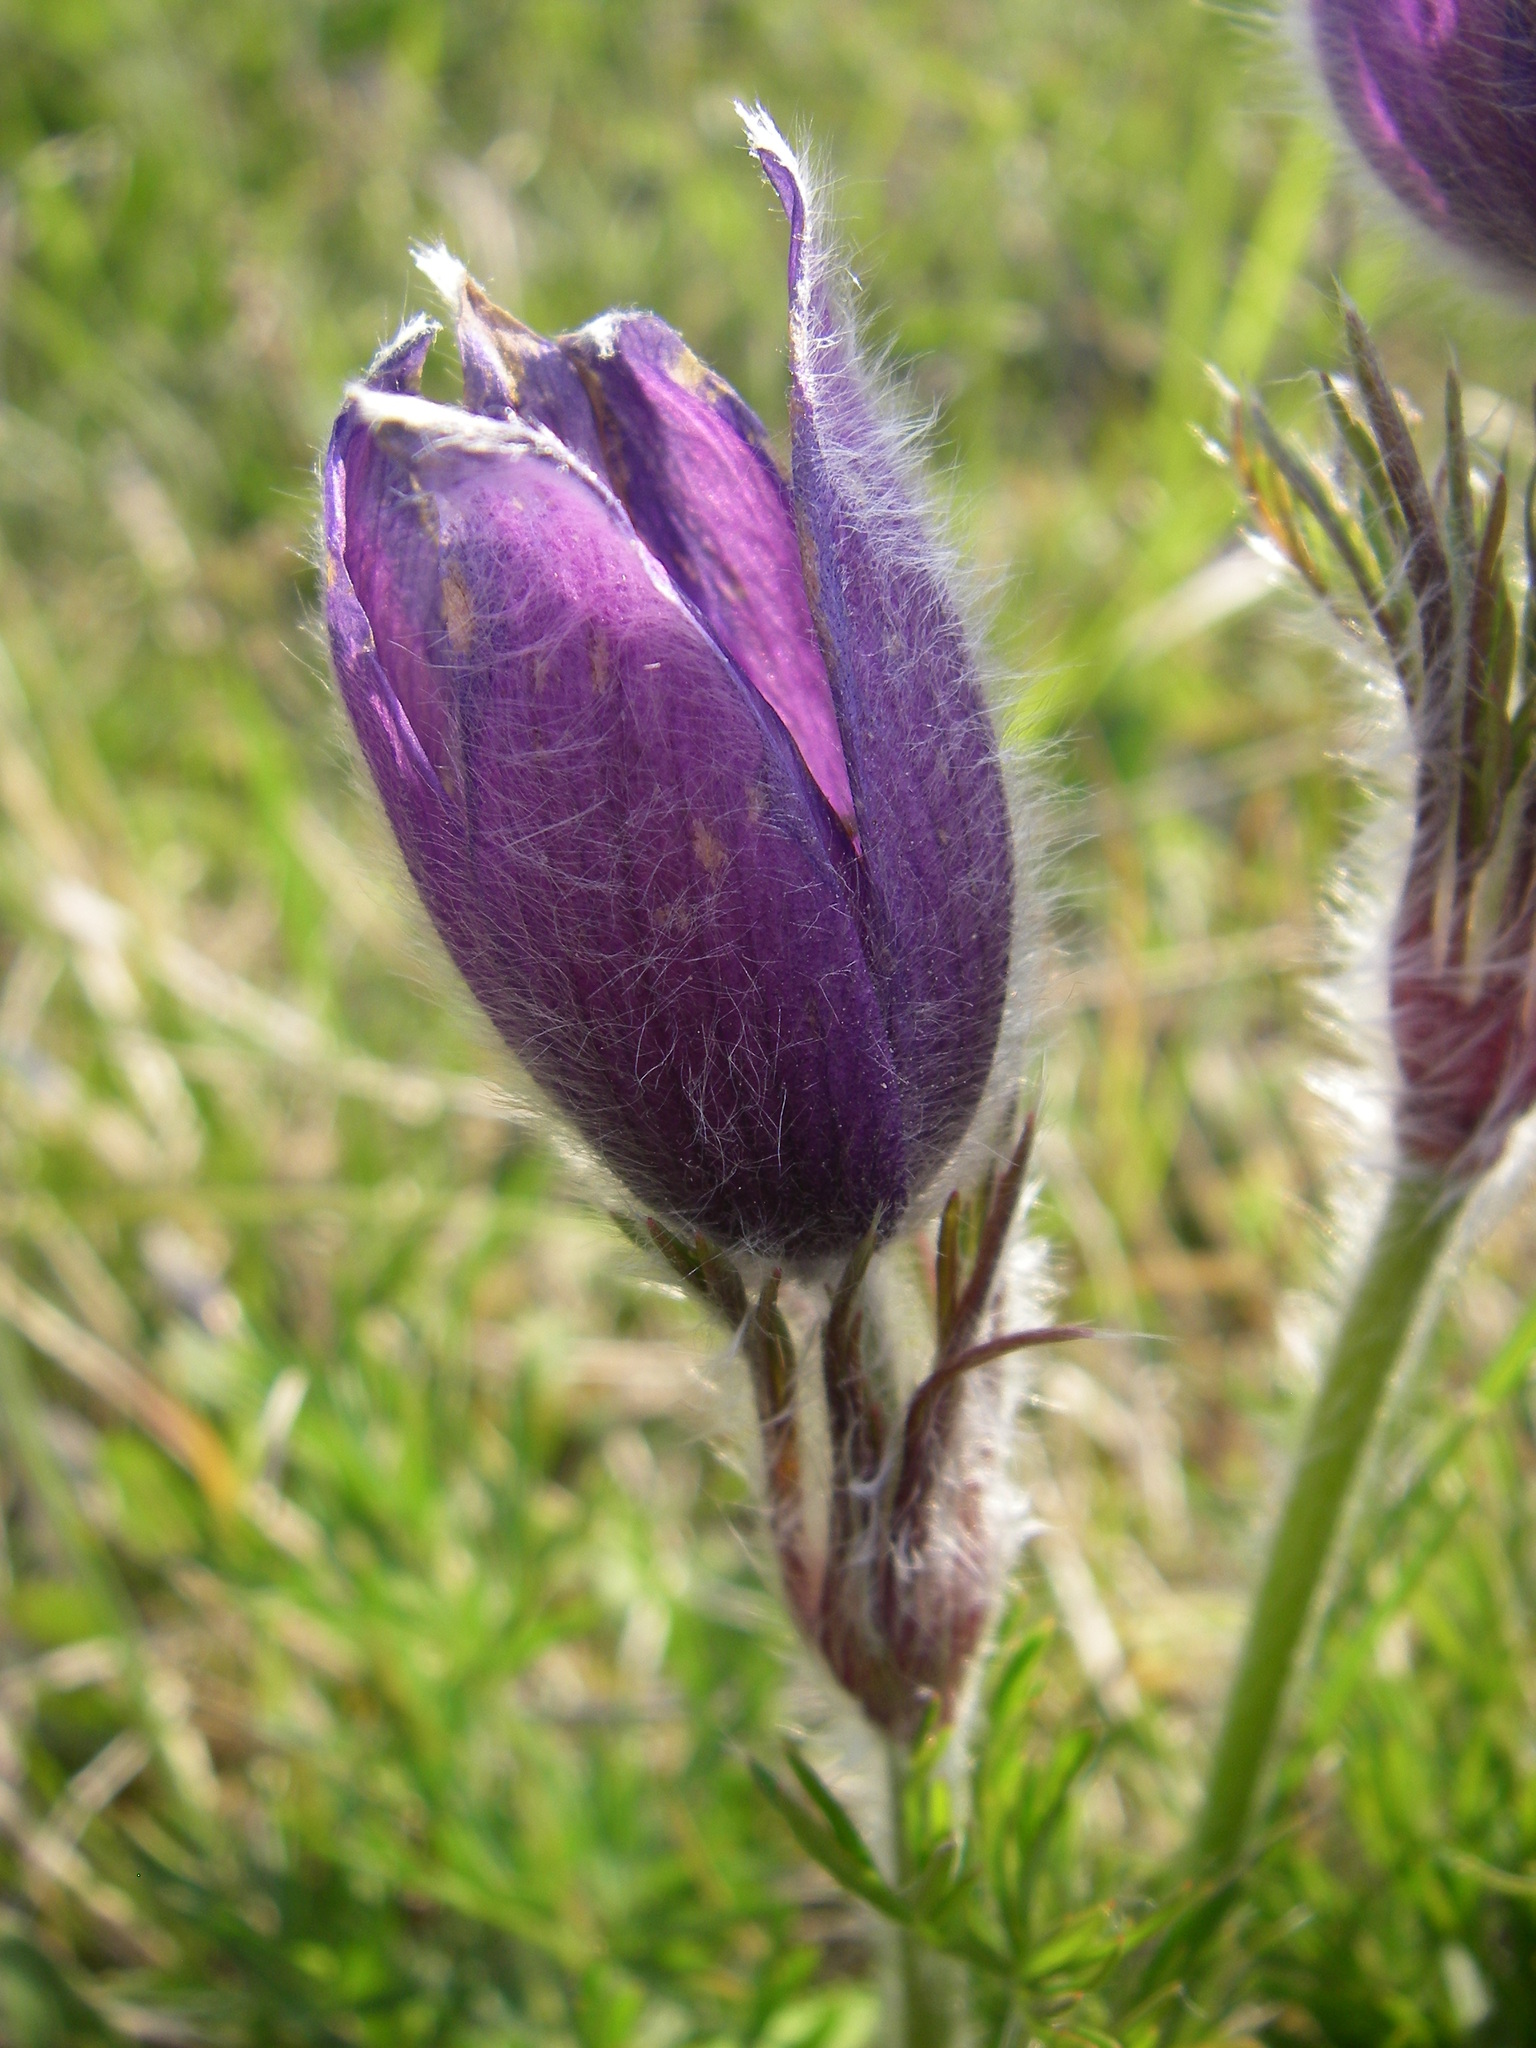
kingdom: Plantae
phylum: Tracheophyta
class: Magnoliopsida
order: Ranunculales
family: Ranunculaceae
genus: Pulsatilla
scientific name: Pulsatilla vulgaris
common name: Pasqueflower
